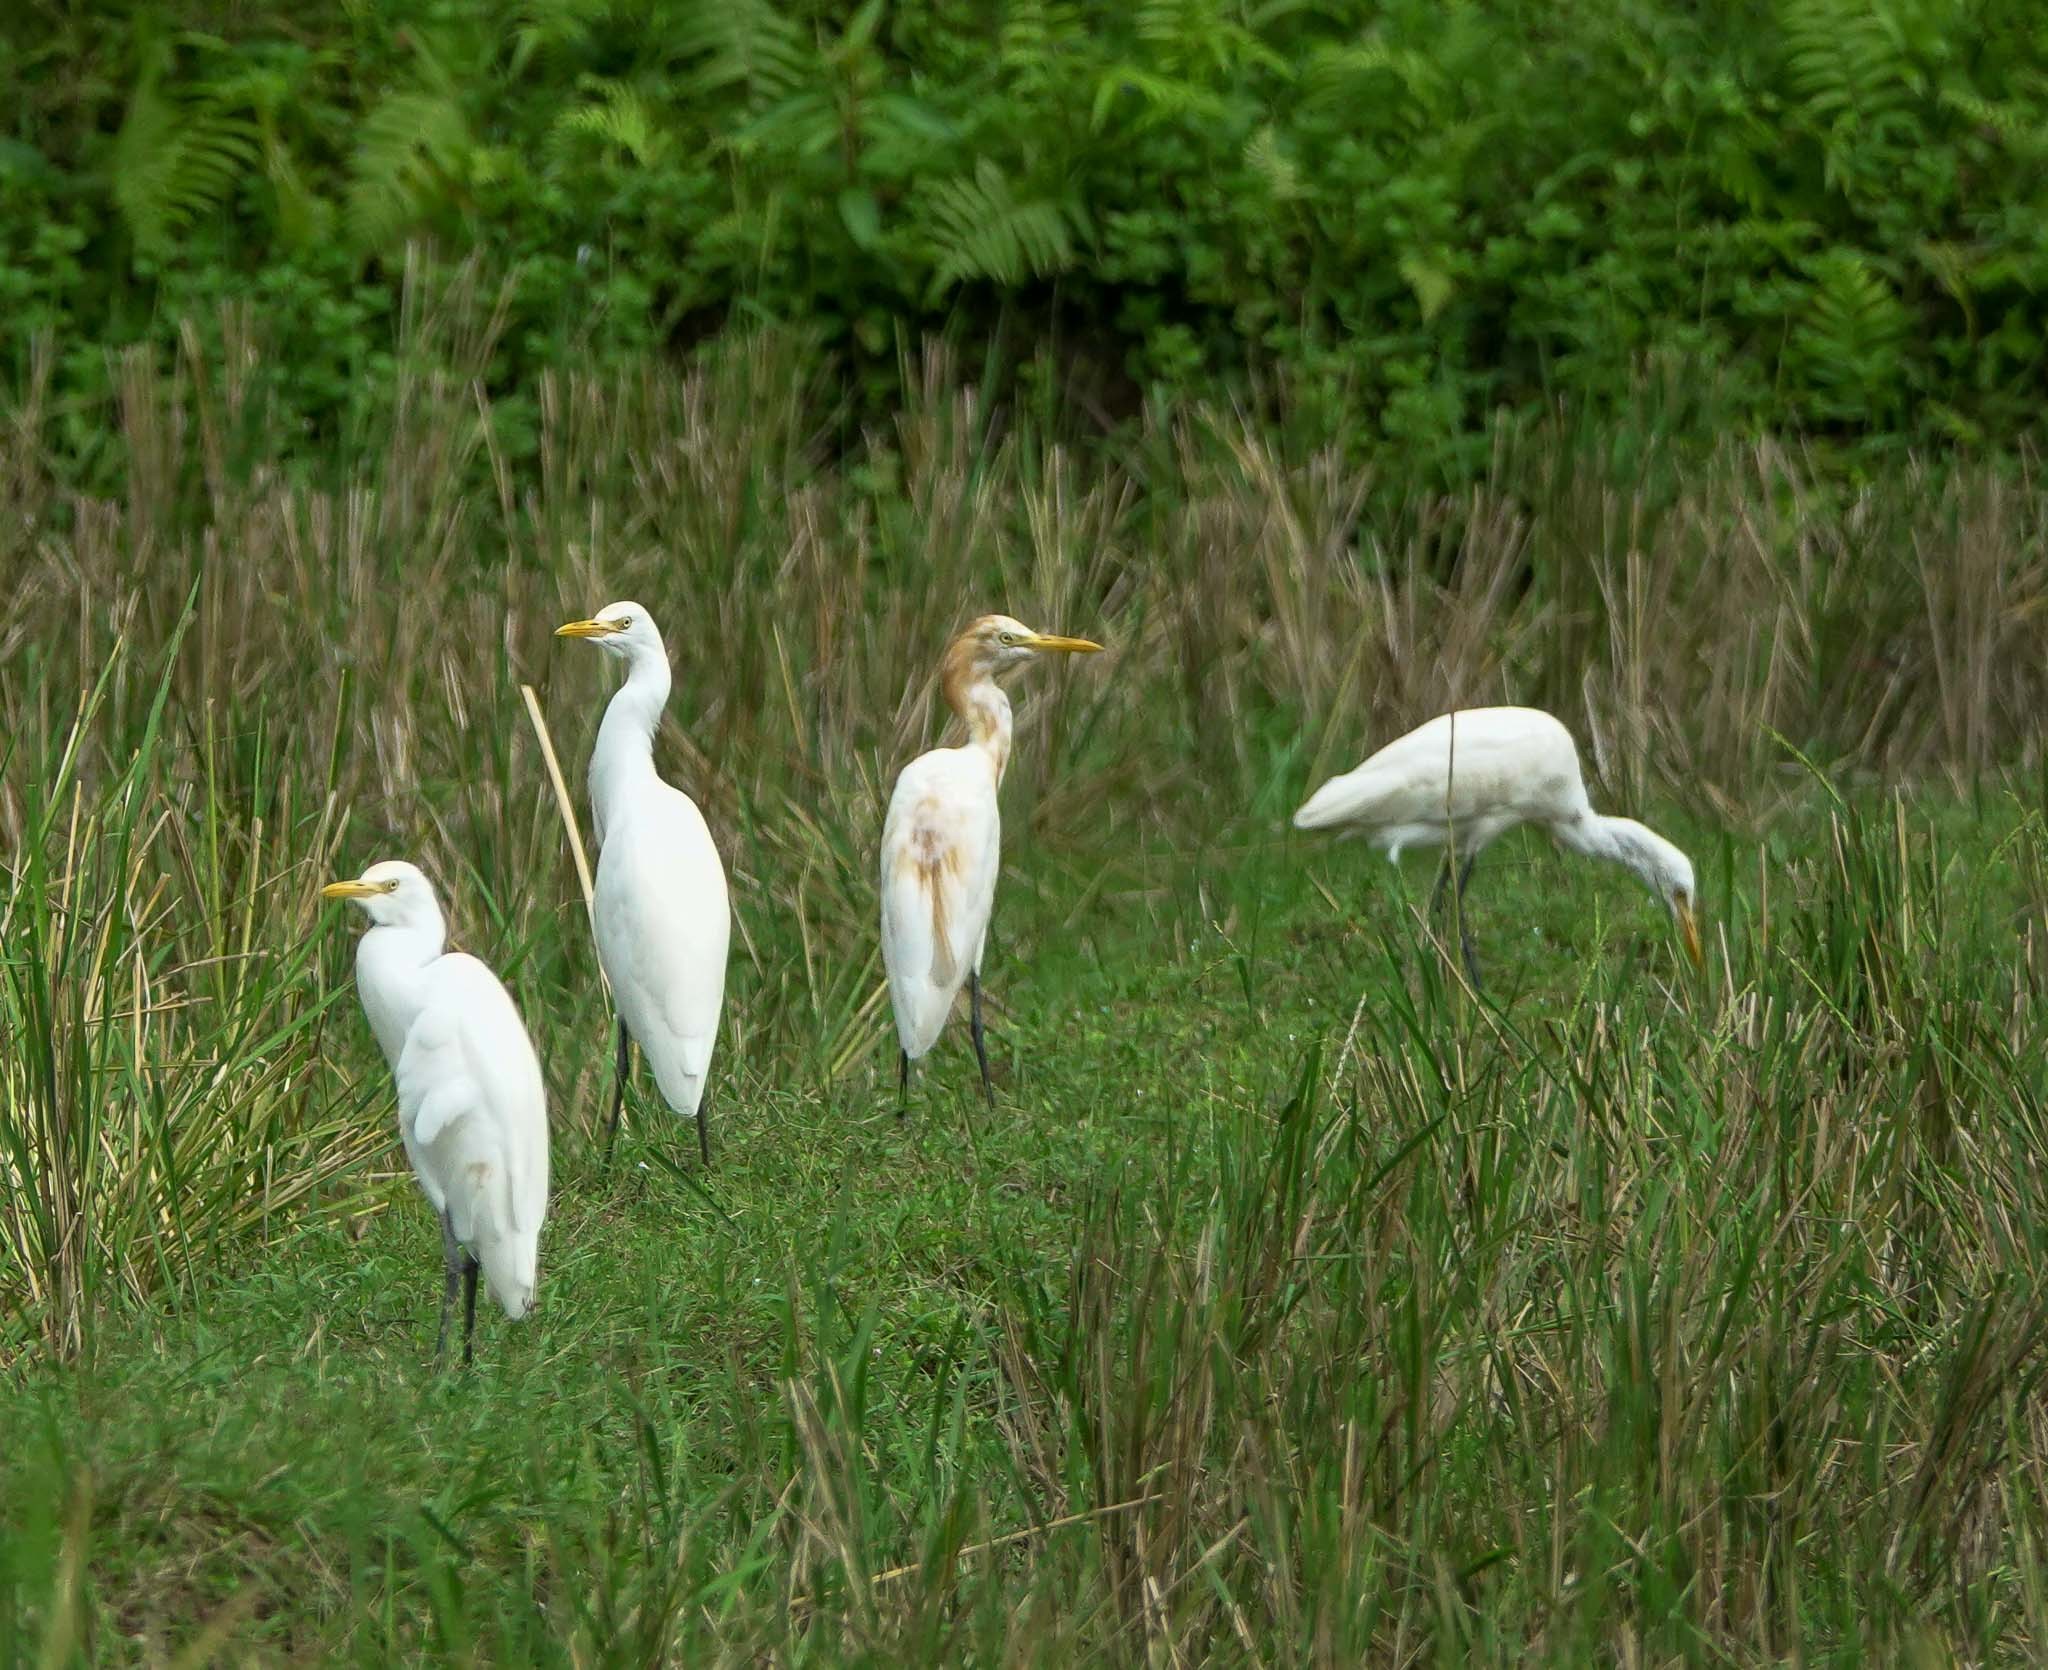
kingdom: Animalia
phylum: Chordata
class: Aves
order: Pelecaniformes
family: Ardeidae
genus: Bubulcus
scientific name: Bubulcus coromandus
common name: Eastern cattle egret
